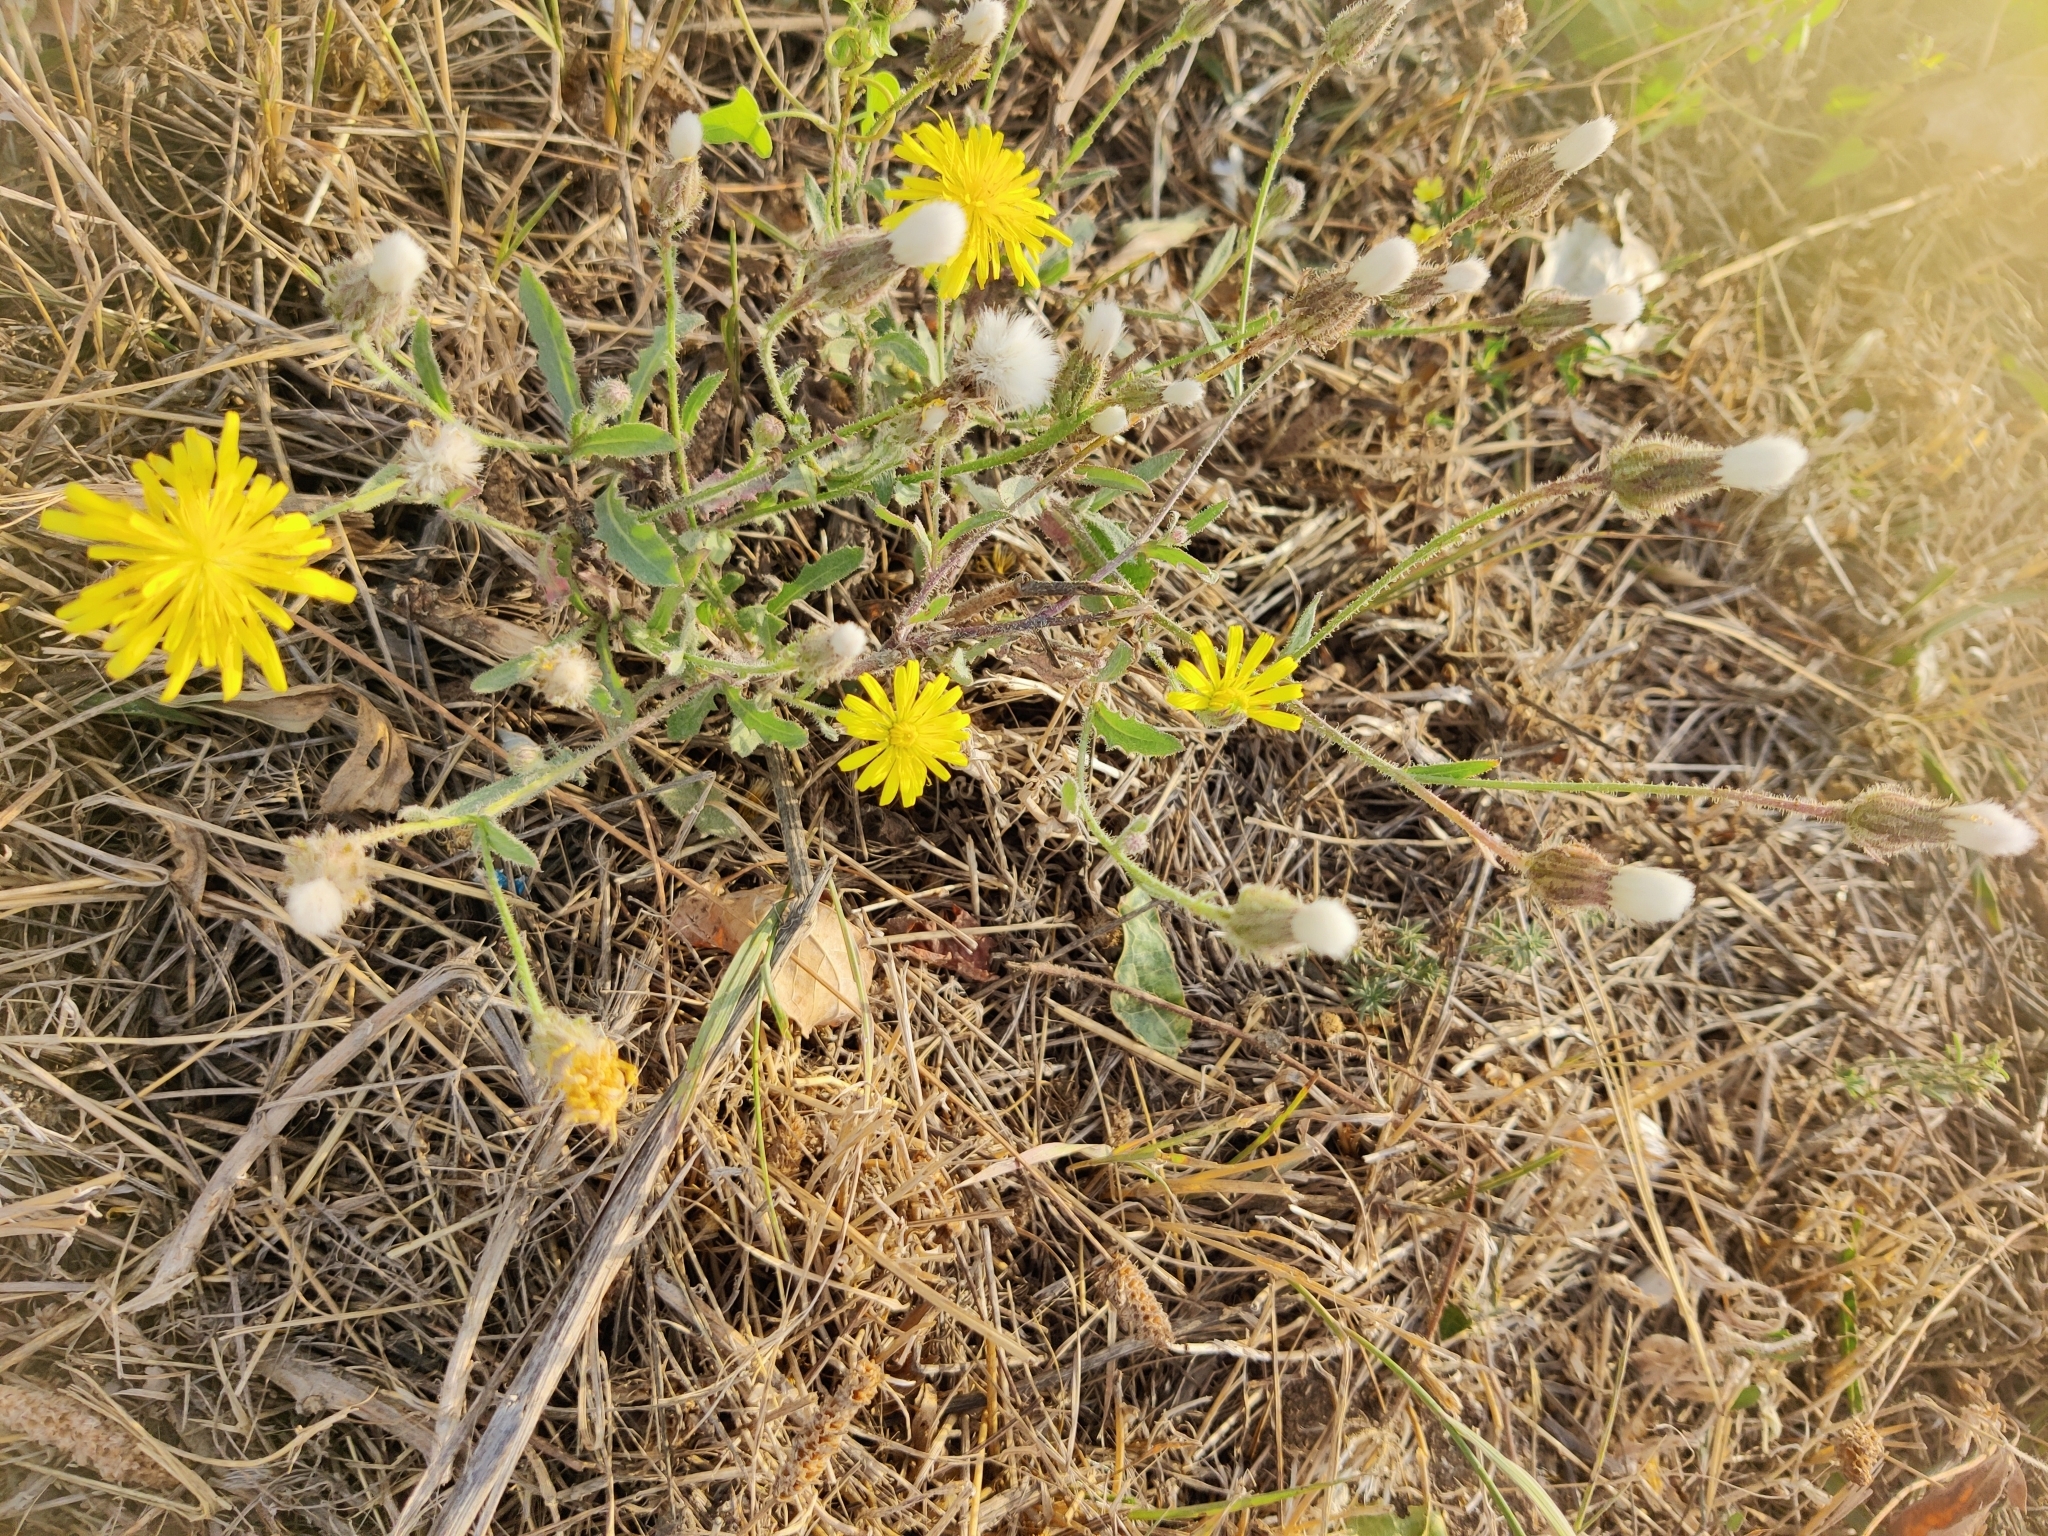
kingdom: Plantae
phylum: Tracheophyta
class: Magnoliopsida
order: Asterales
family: Asteraceae
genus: Crepis
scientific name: Crepis foetida
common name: Stinking hawk's-beard
